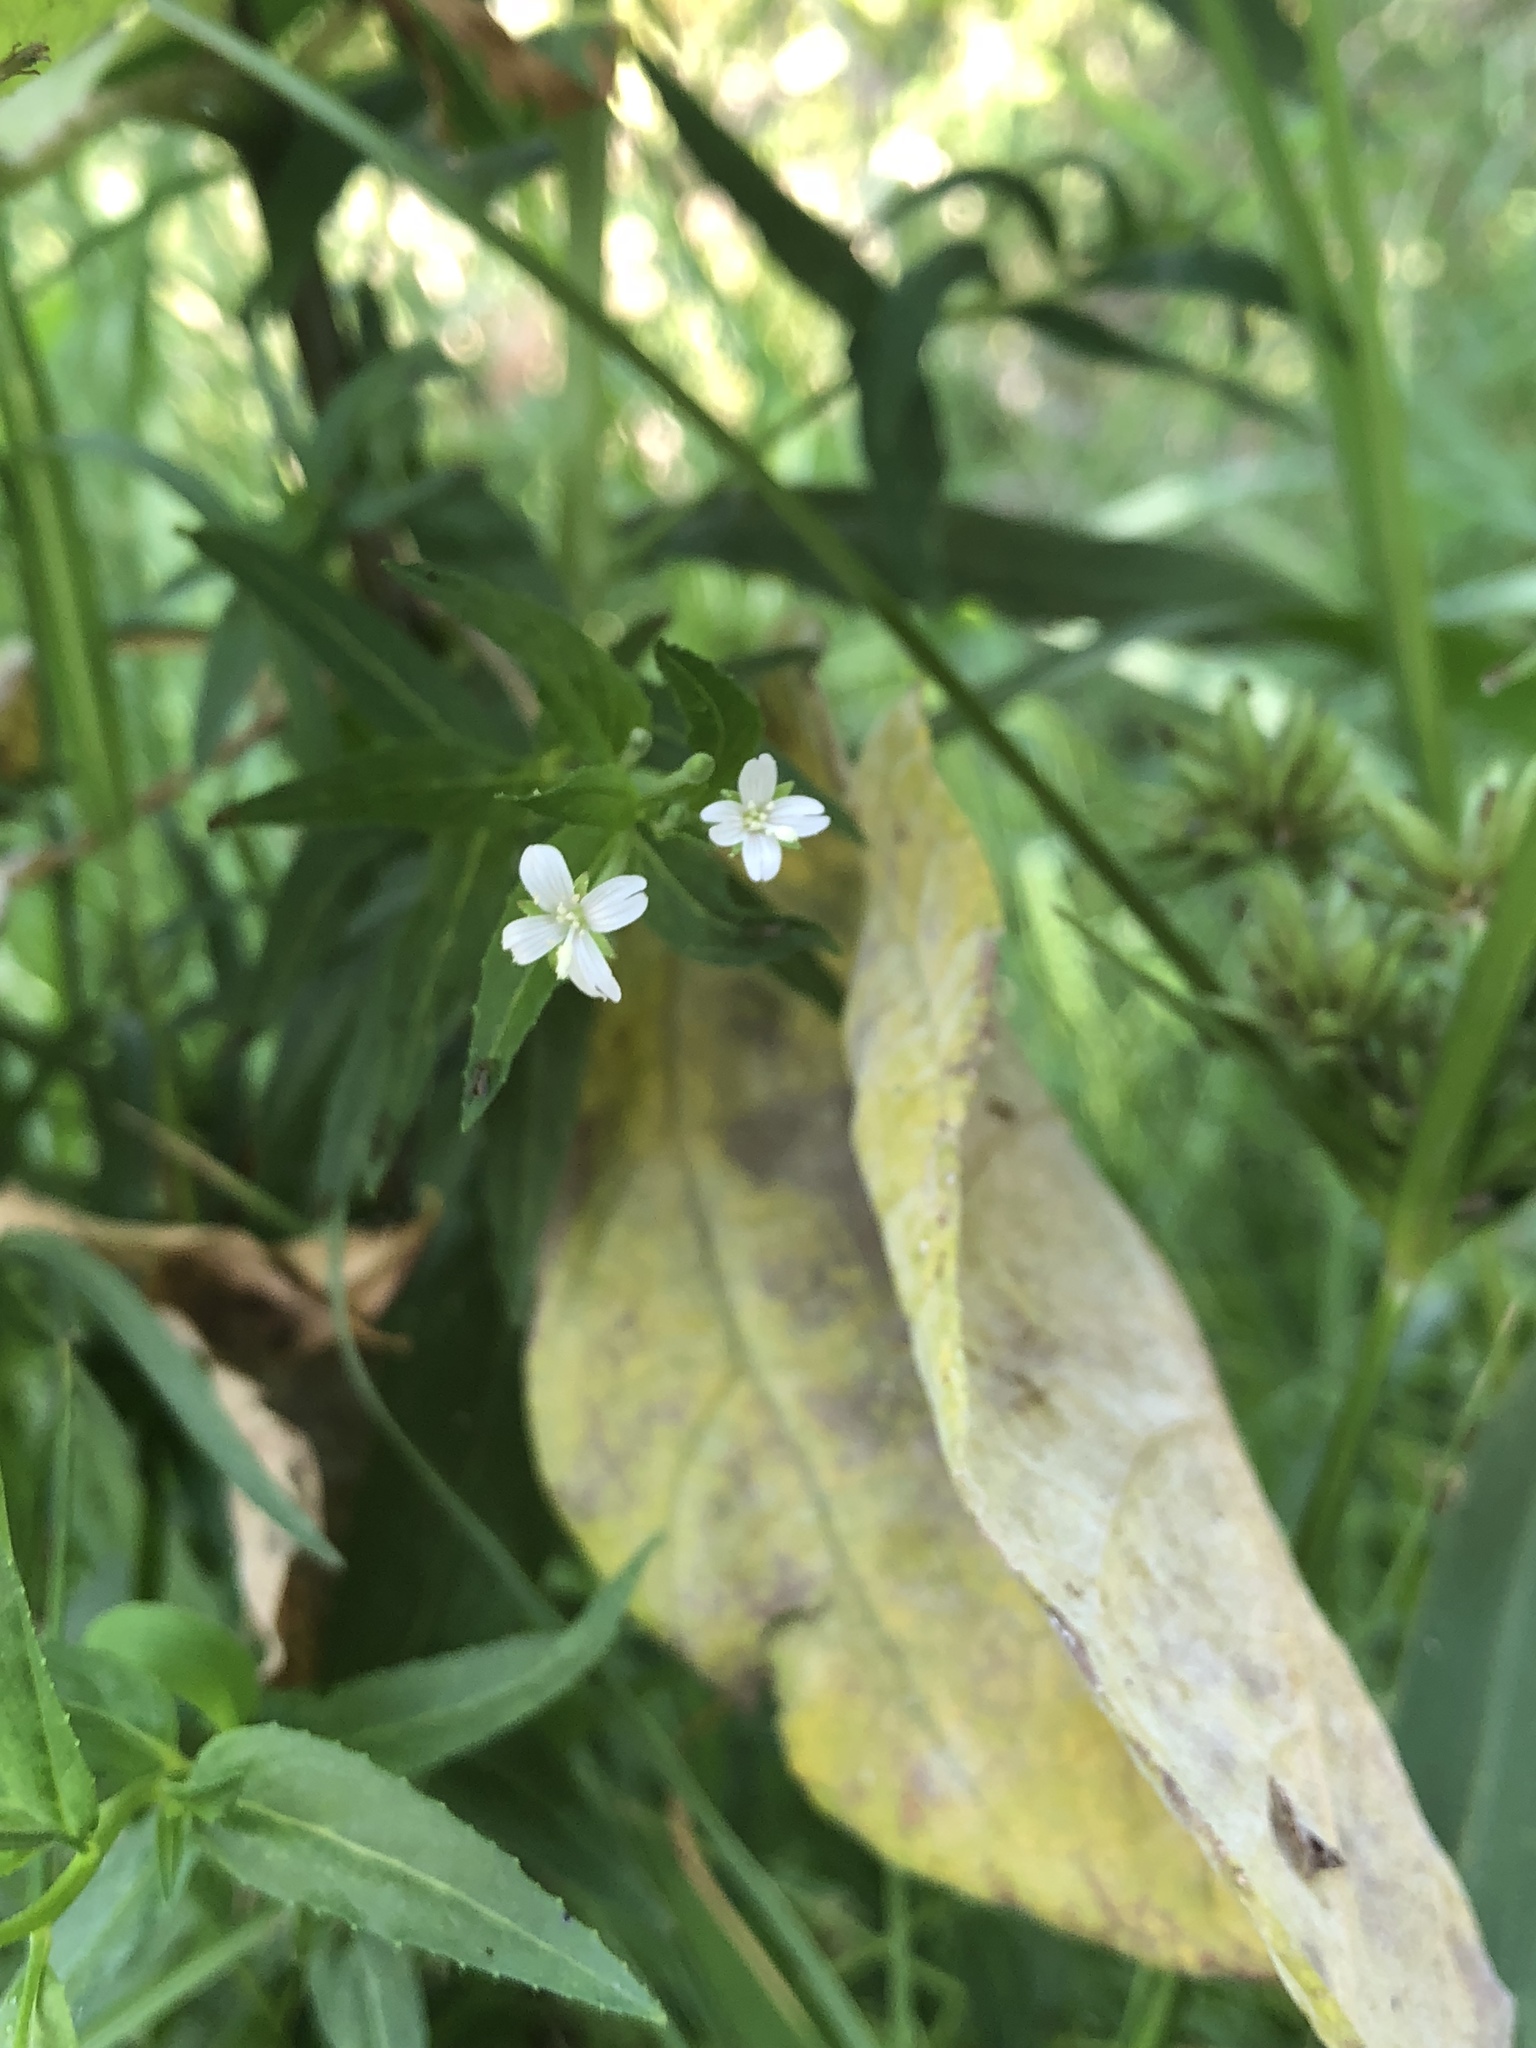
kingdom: Plantae
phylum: Tracheophyta
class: Magnoliopsida
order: Myrtales
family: Onagraceae
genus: Epilobium
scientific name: Epilobium ciliatum
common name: American willowherb
